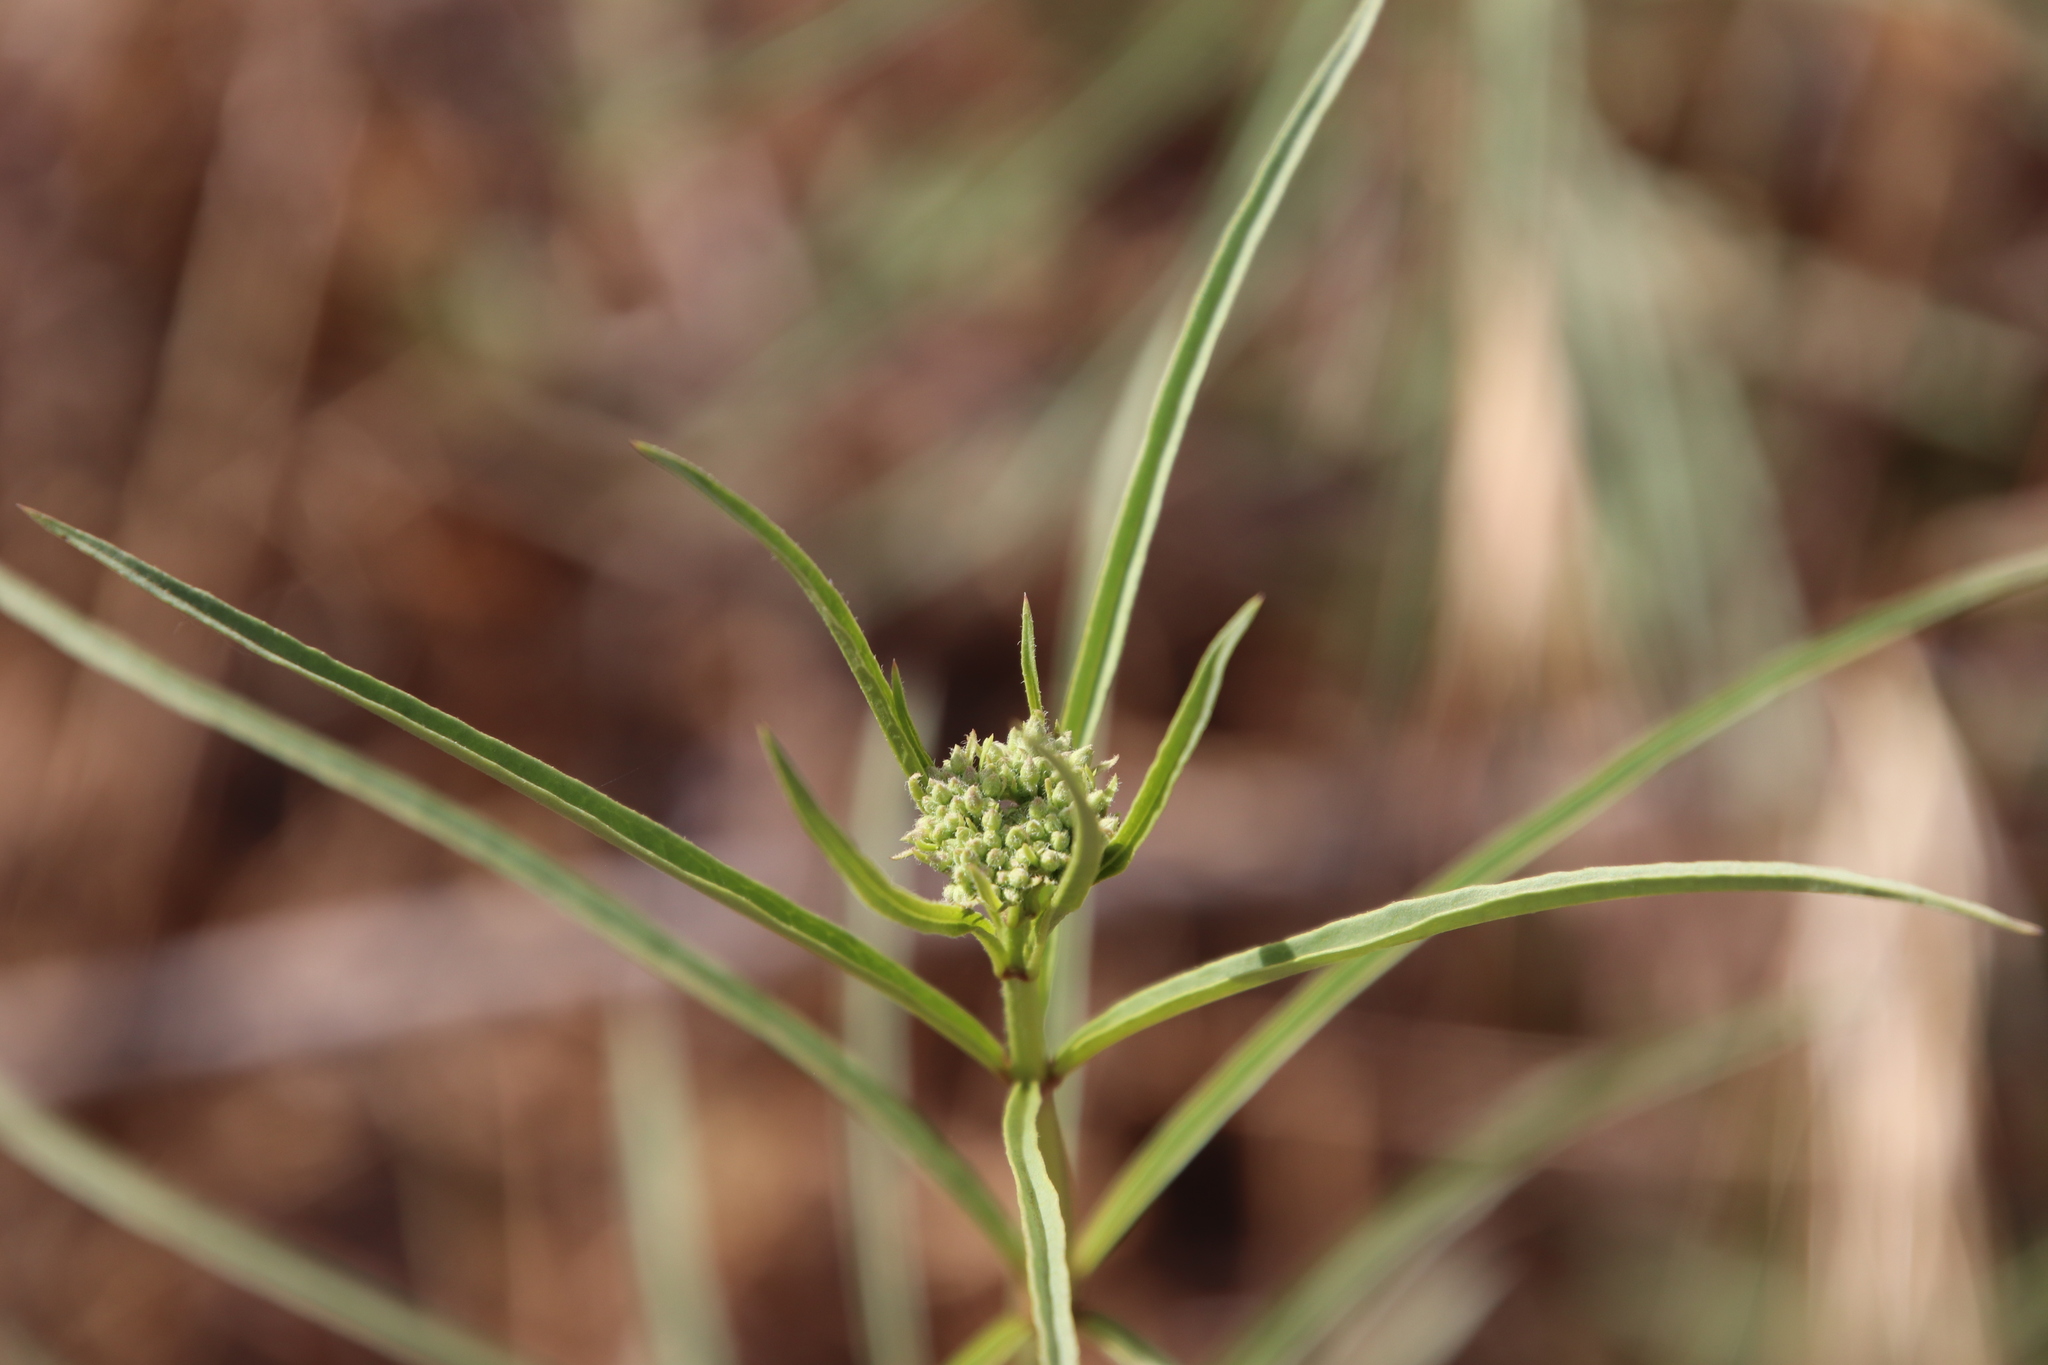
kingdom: Plantae
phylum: Tracheophyta
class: Magnoliopsida
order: Gentianales
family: Apocynaceae
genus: Asclepias
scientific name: Asclepias fascicularis
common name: Mexican milkweed
